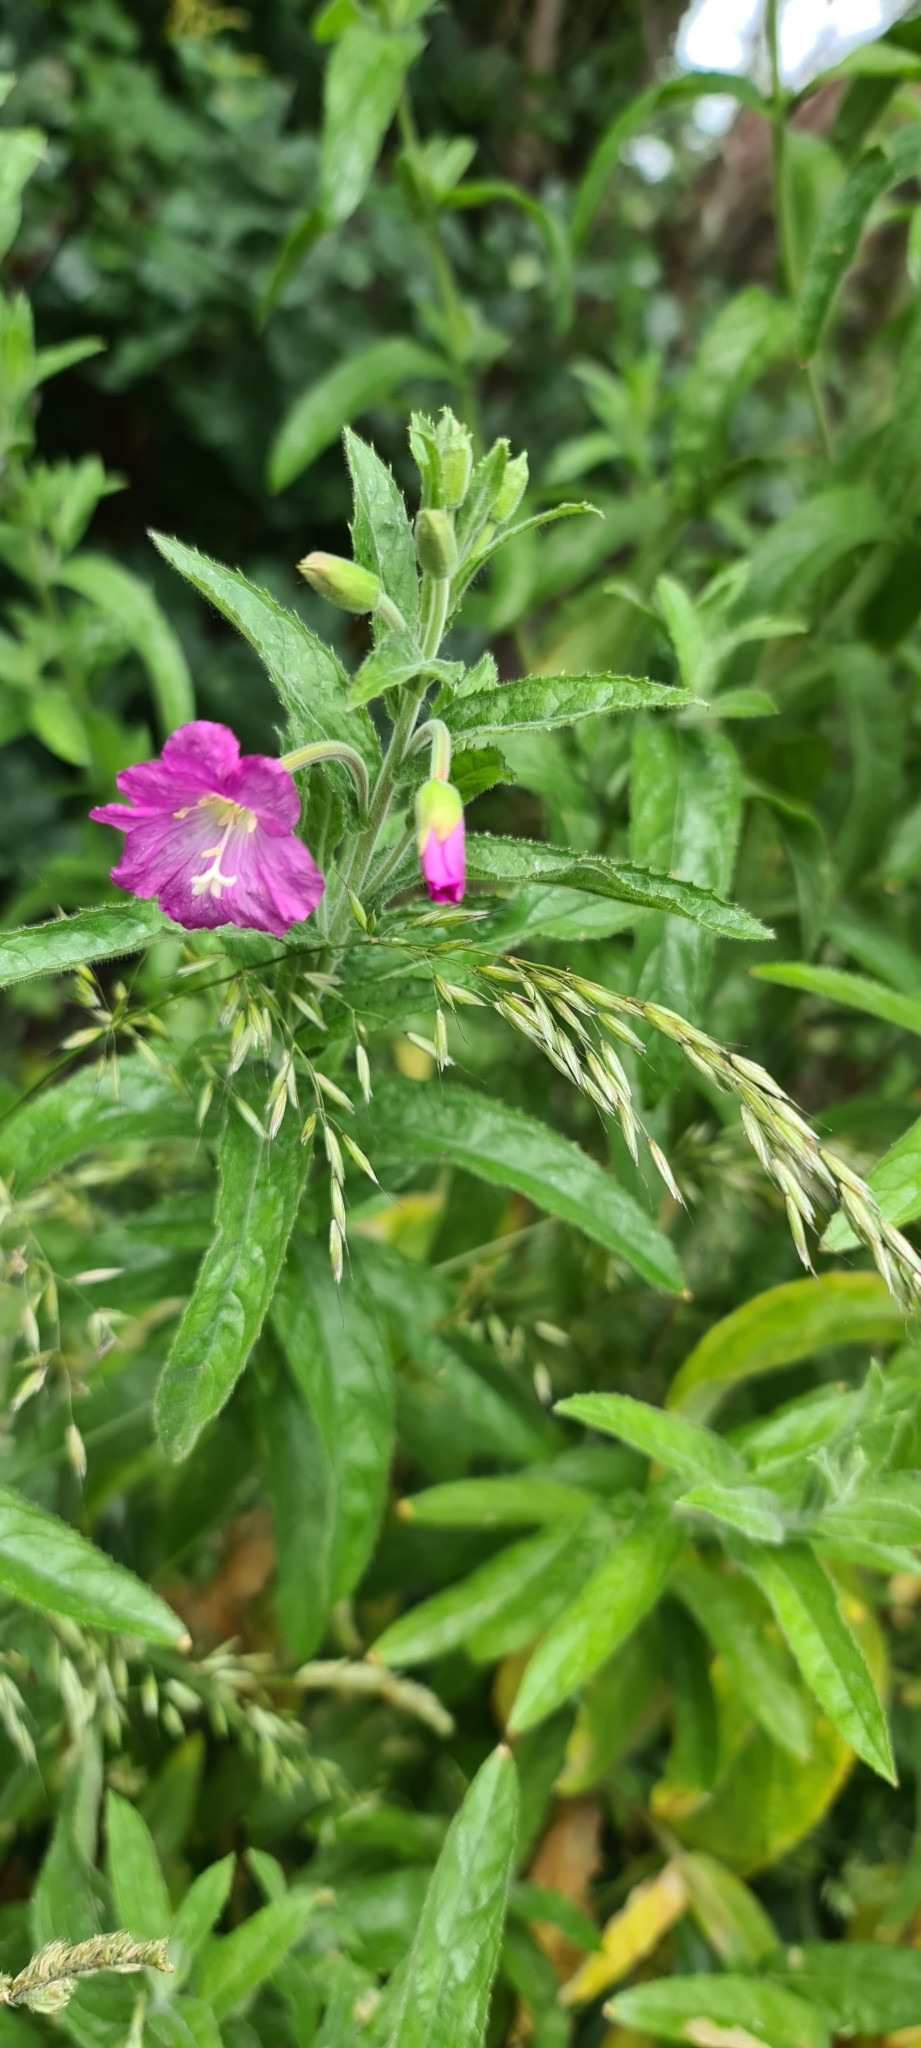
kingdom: Plantae
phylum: Tracheophyta
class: Magnoliopsida
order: Myrtales
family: Onagraceae
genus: Epilobium
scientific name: Epilobium hirsutum
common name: Great willowherb
